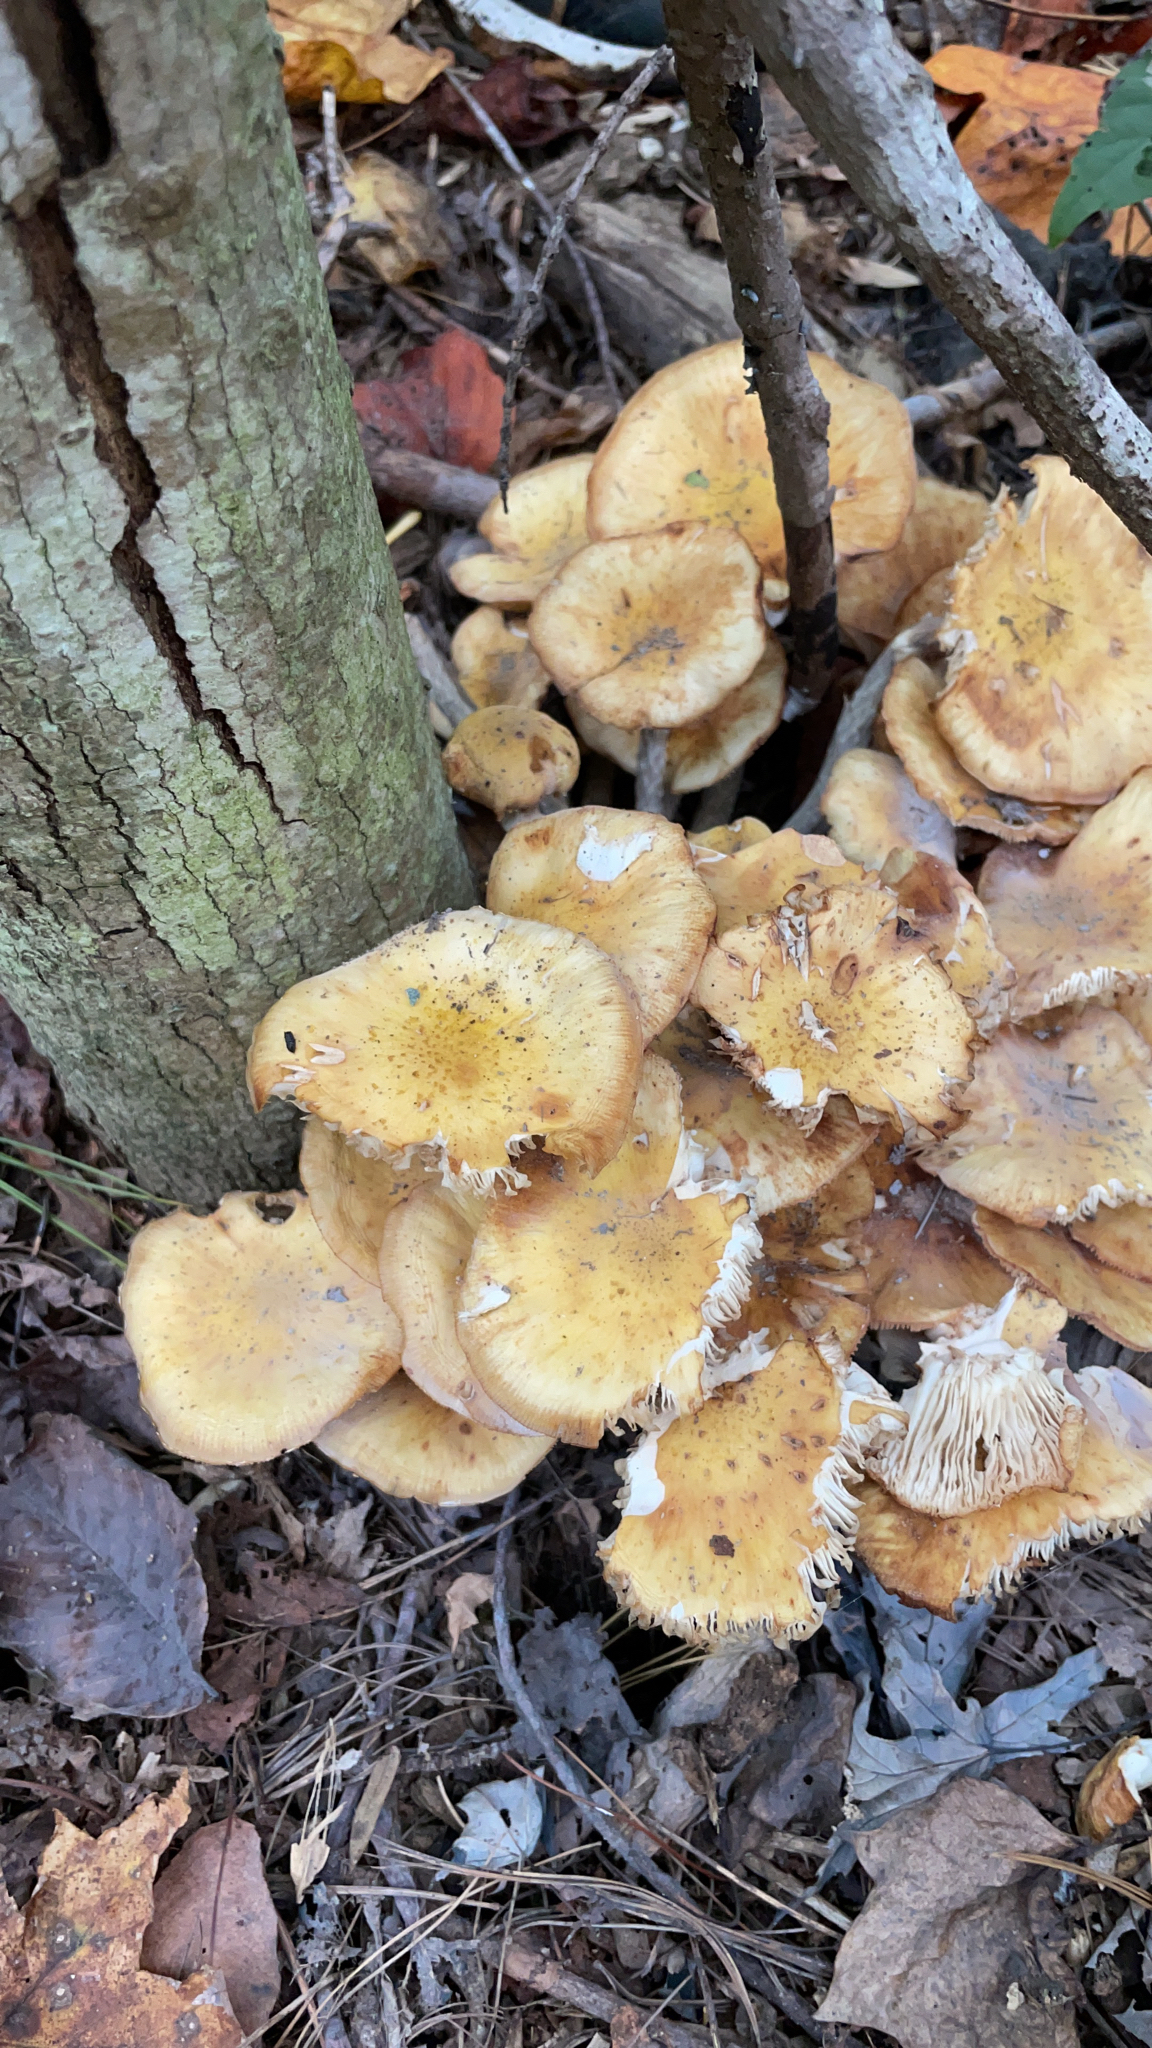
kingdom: Fungi
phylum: Basidiomycota
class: Agaricomycetes
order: Agaricales
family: Physalacriaceae
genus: Armillaria
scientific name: Armillaria mellea
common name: Honey fungus
